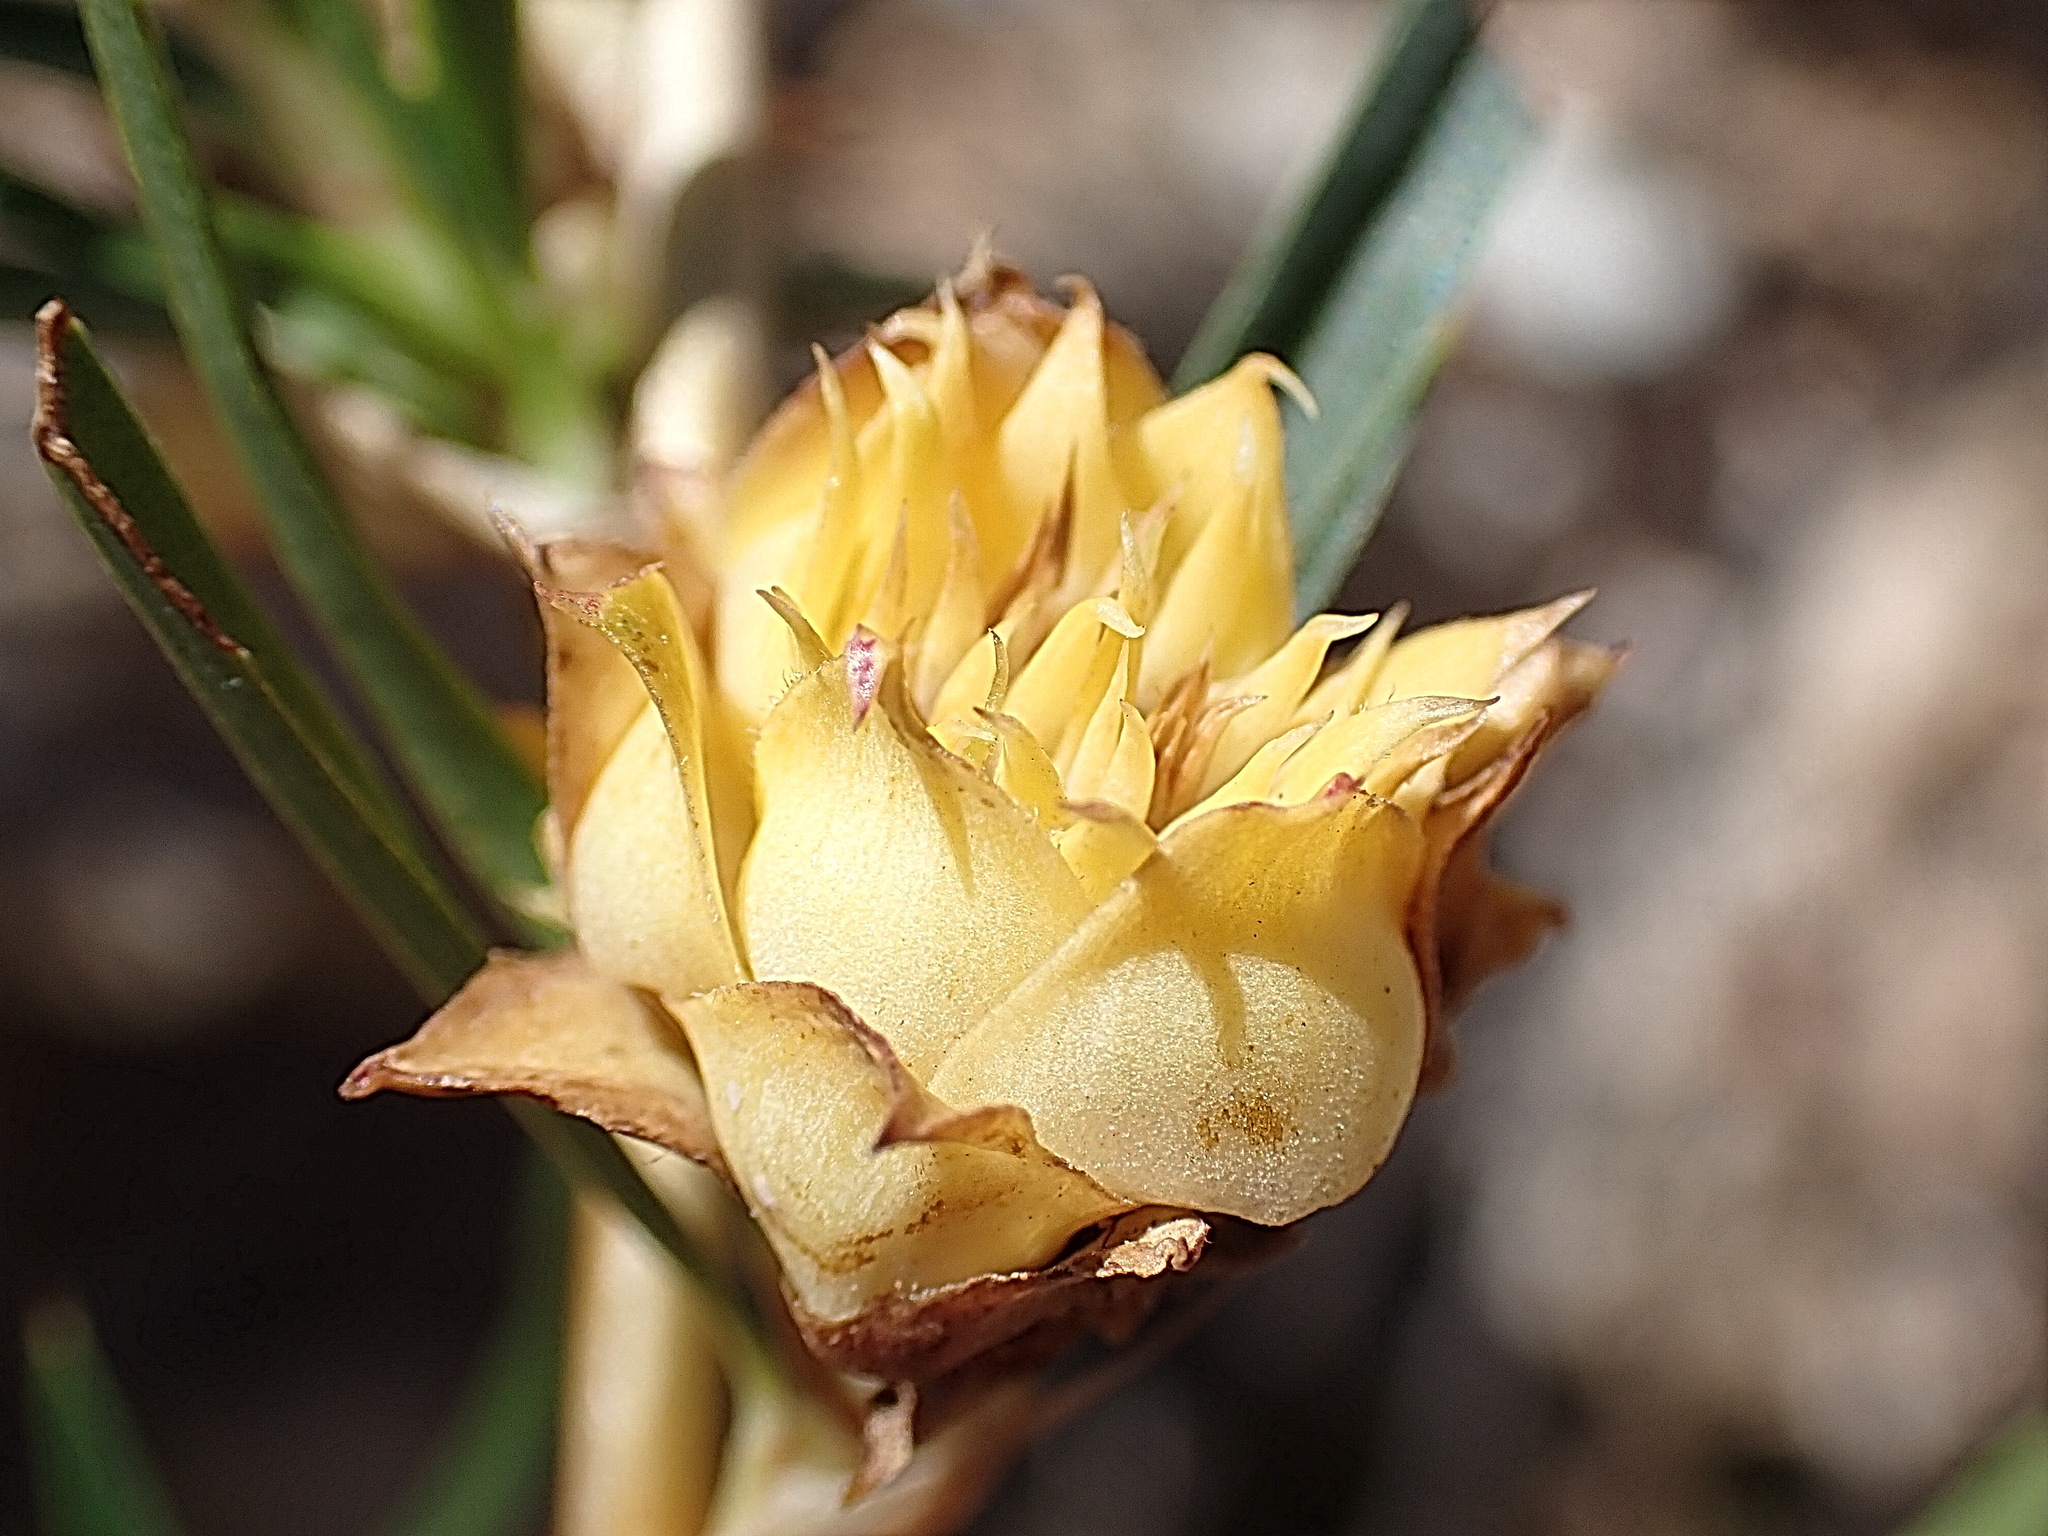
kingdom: Plantae
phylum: Tracheophyta
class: Magnoliopsida
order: Rosales
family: Rosaceae
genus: Cliffortia
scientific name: Cliffortia strobilifera
